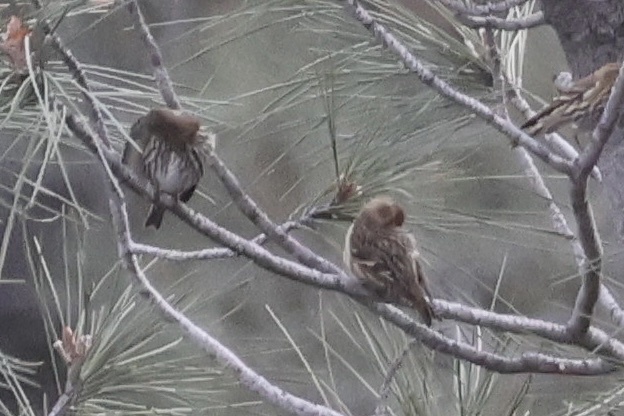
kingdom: Animalia
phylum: Chordata
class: Aves
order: Passeriformes
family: Fringillidae
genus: Haemorhous
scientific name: Haemorhous mexicanus
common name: House finch
